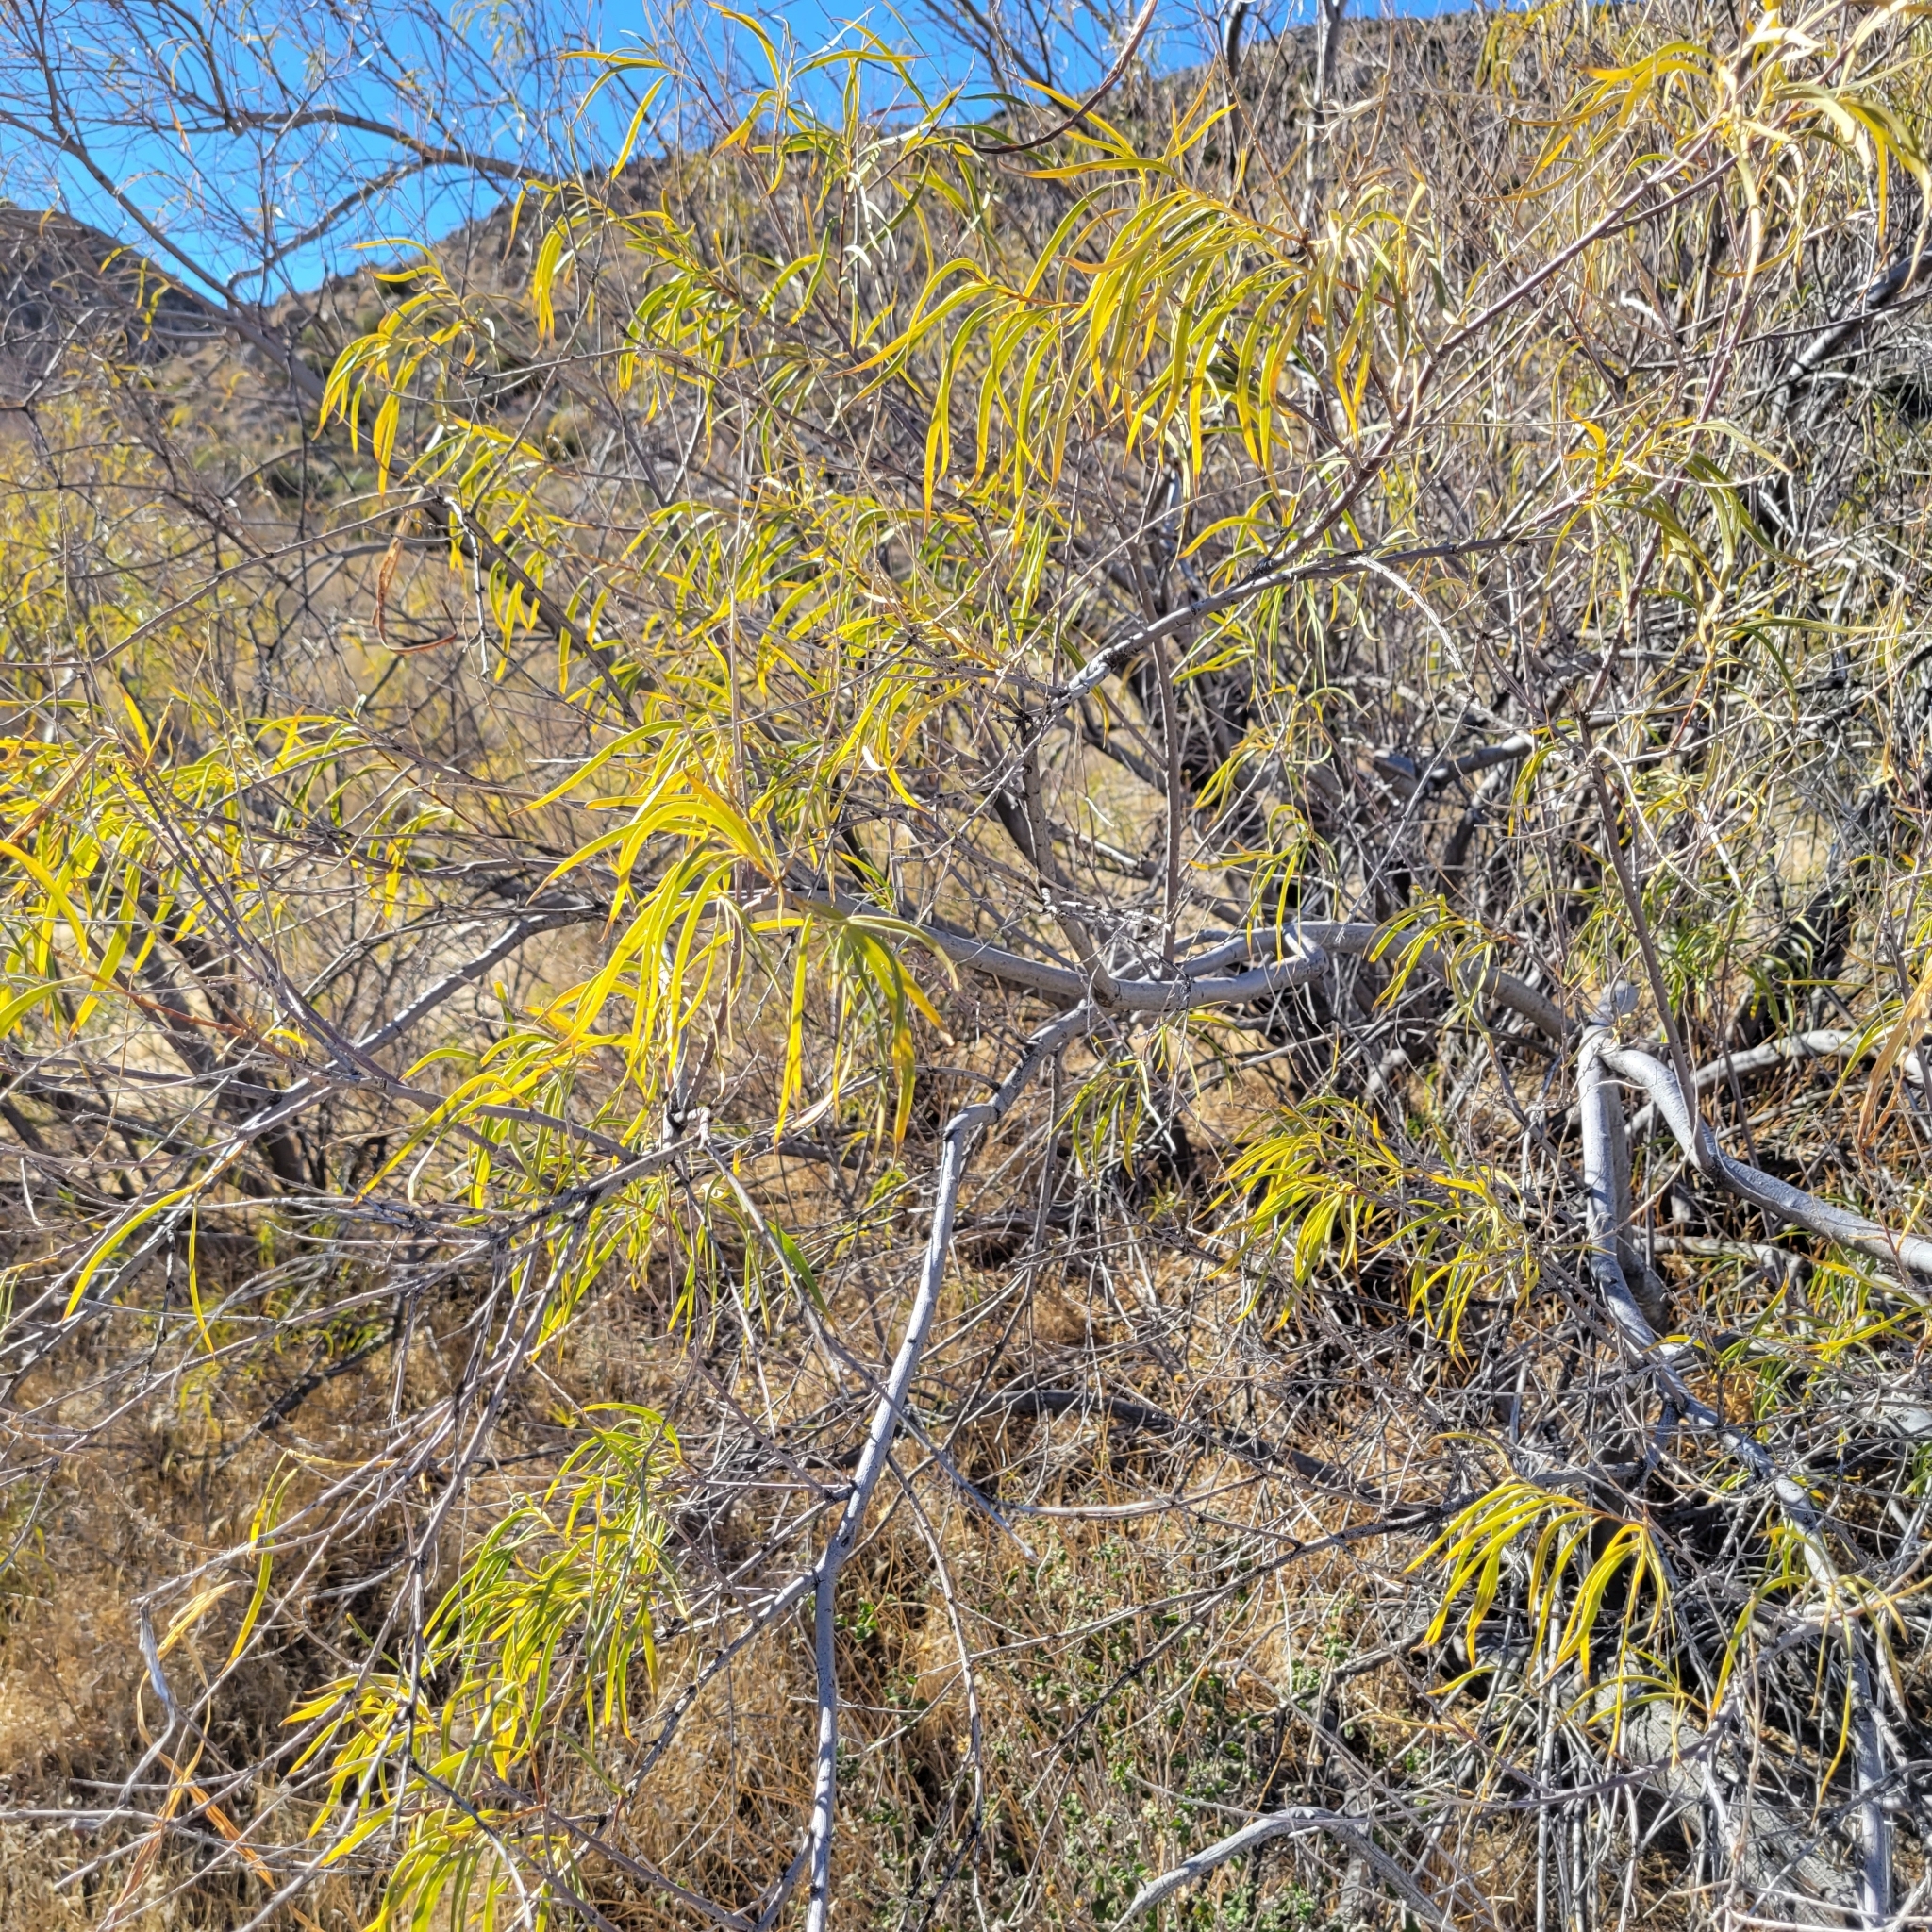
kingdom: Plantae
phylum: Tracheophyta
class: Magnoliopsida
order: Lamiales
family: Bignoniaceae
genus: Chilopsis
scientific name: Chilopsis linearis
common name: Desert-willow
